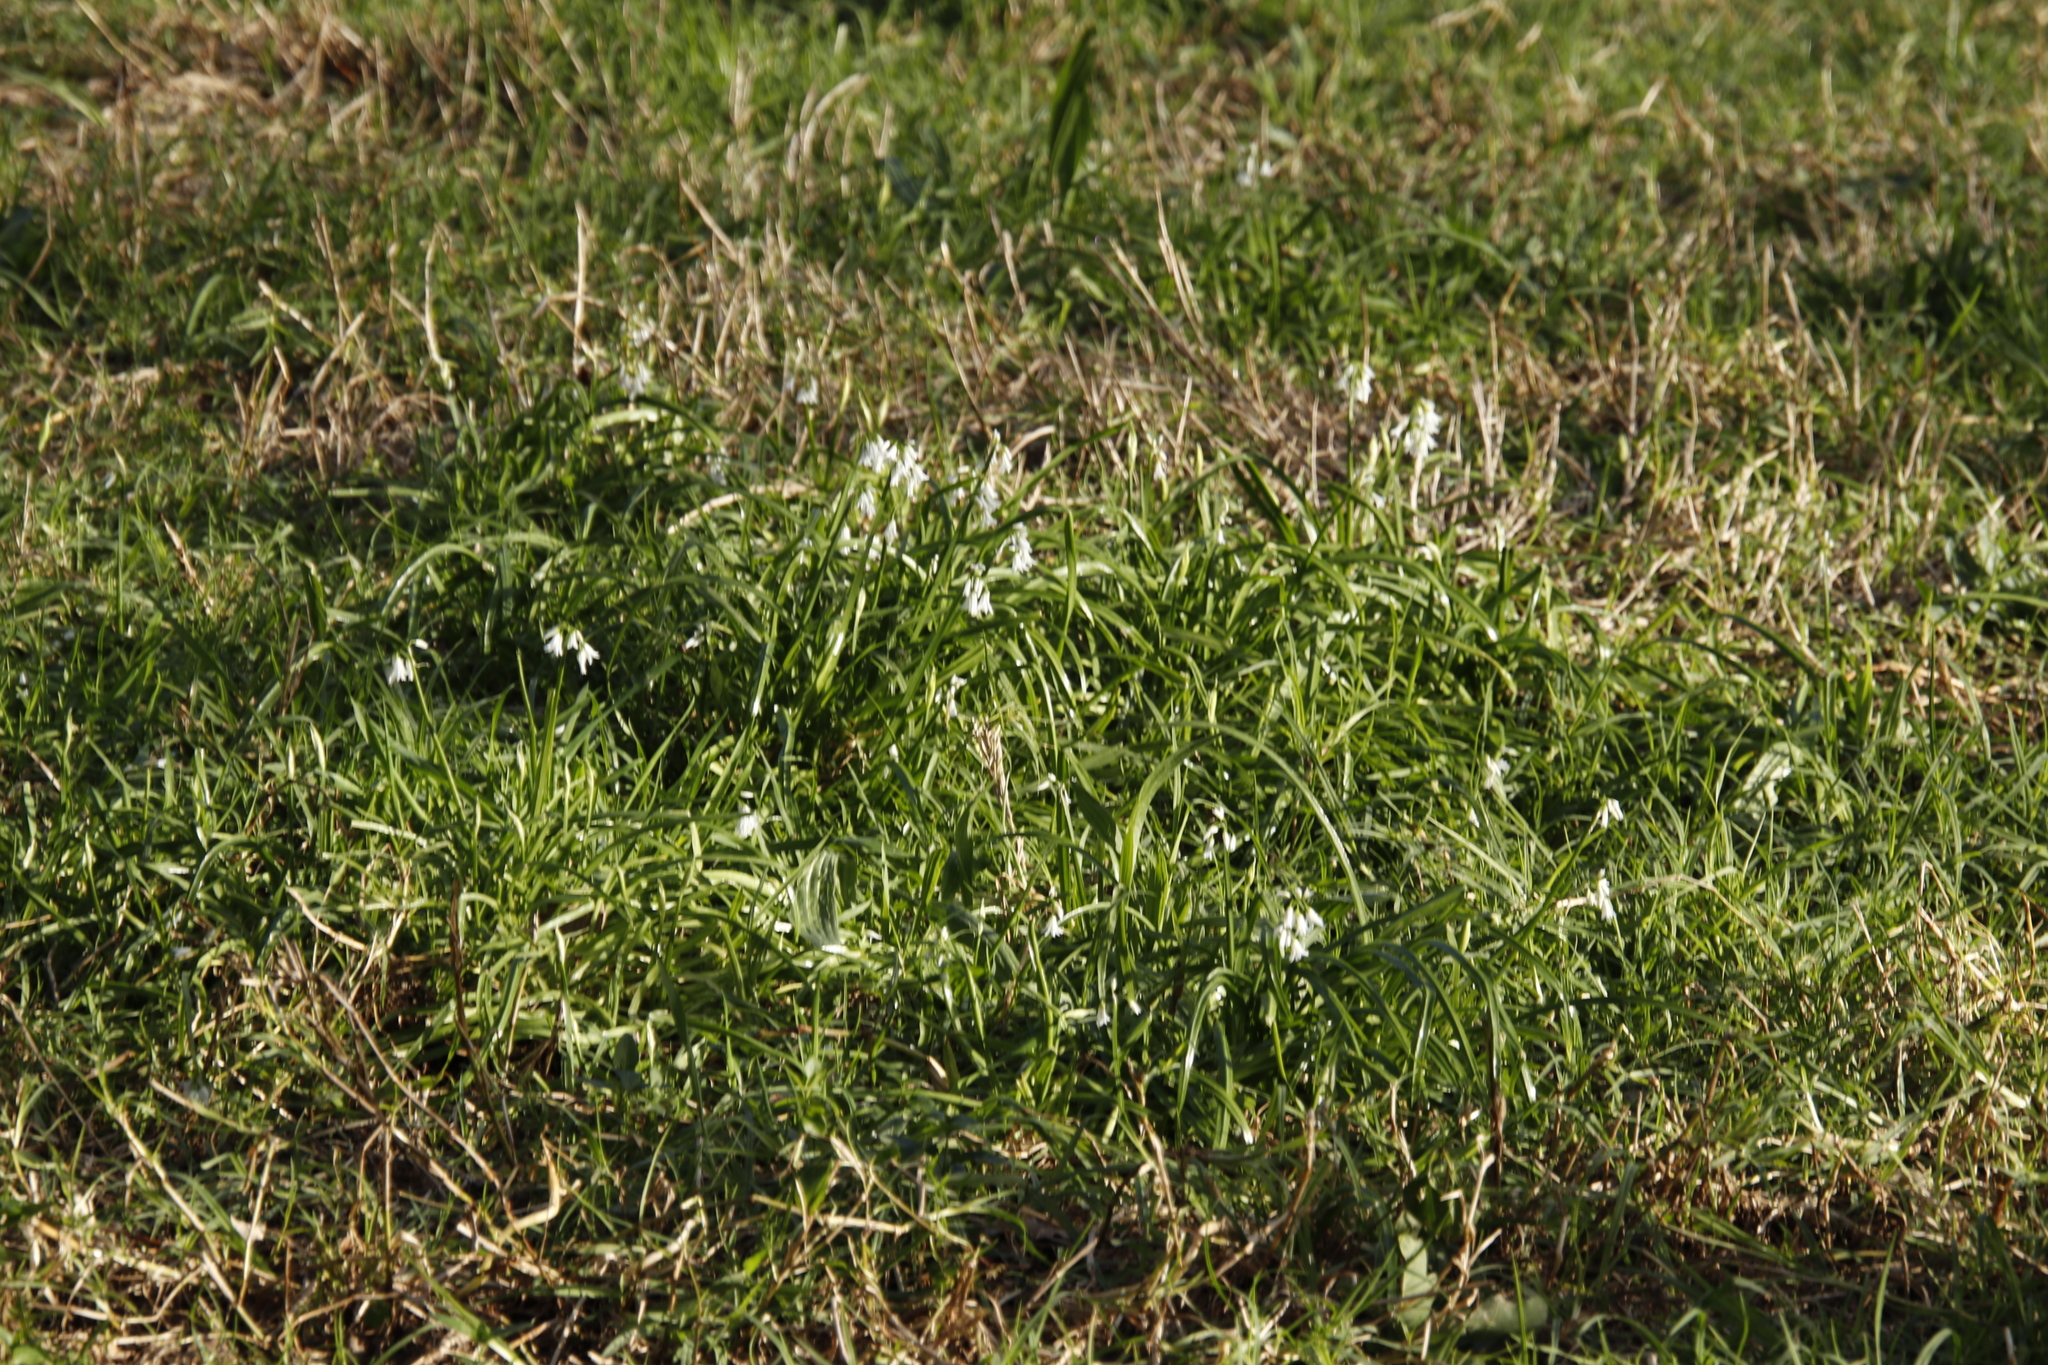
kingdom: Plantae
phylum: Tracheophyta
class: Liliopsida
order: Asparagales
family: Amaryllidaceae
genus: Allium
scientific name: Allium triquetrum
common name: Three-cornered garlic
